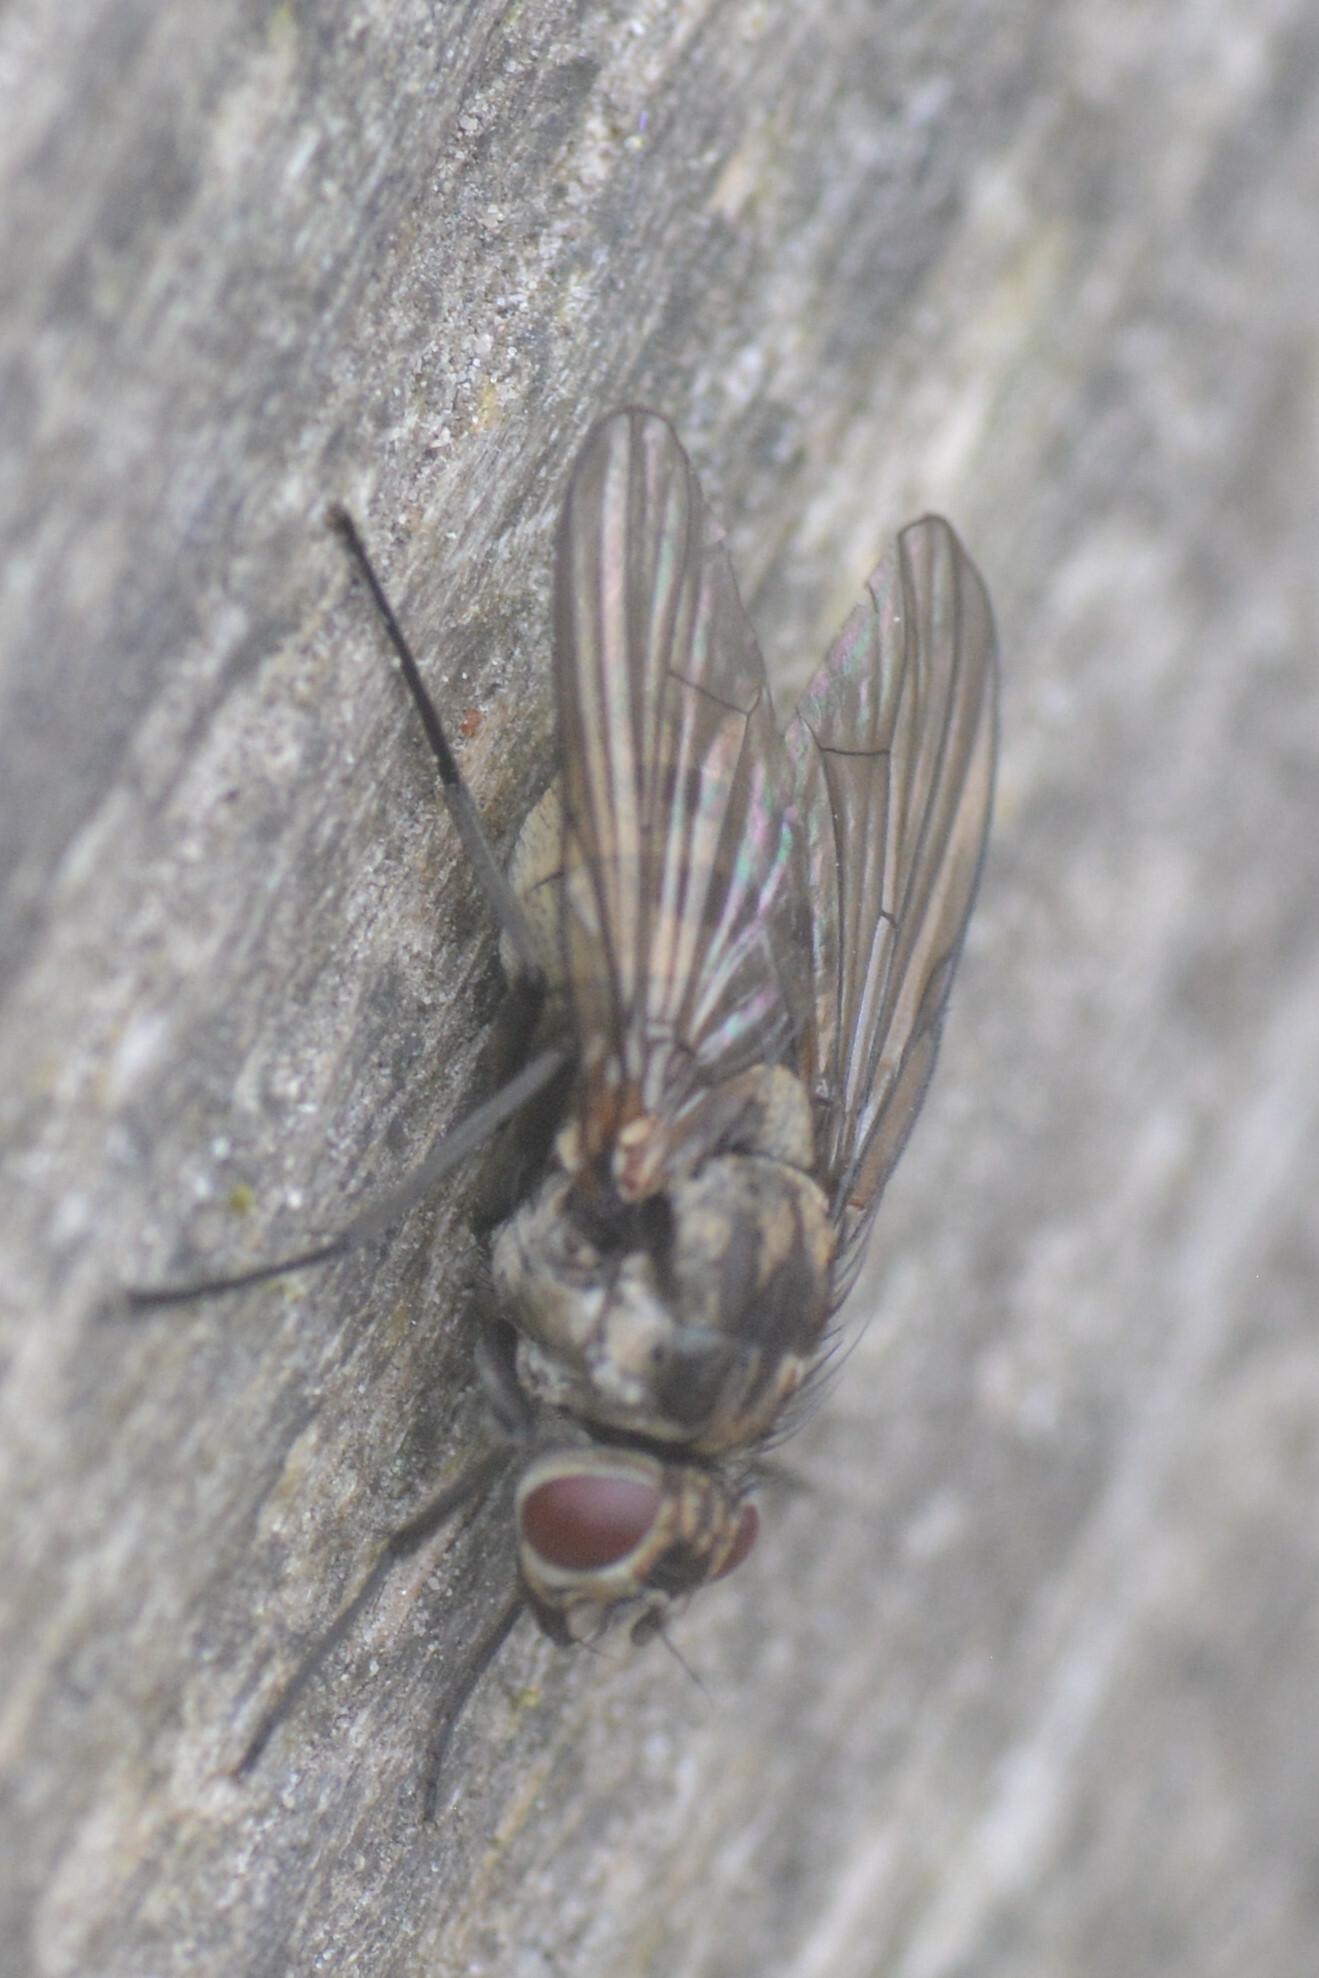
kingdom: Animalia
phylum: Arthropoda
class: Insecta
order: Diptera
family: Muscidae
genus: Limnophora
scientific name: Limnophora maculosa
